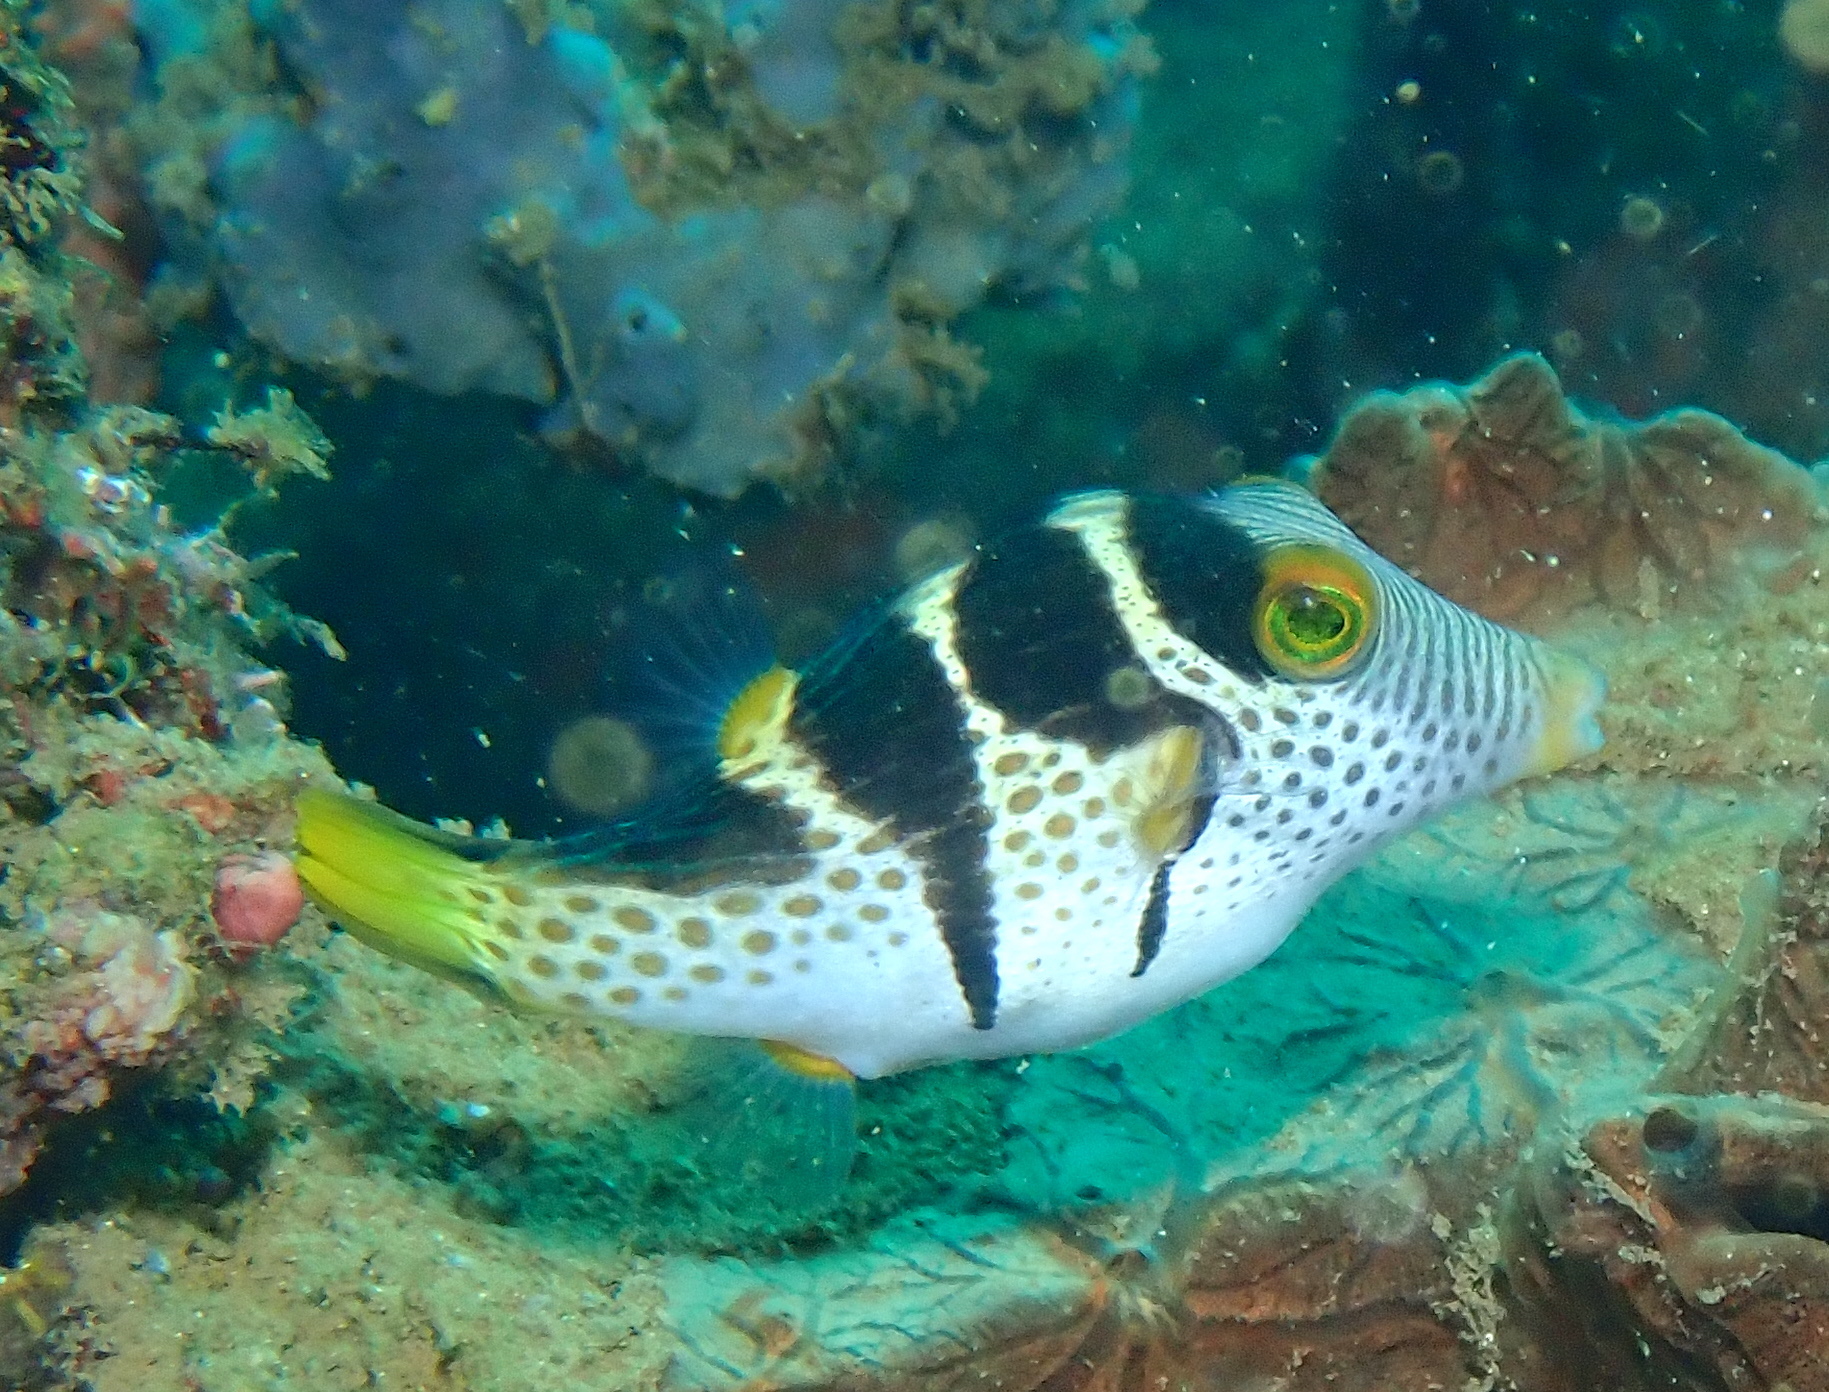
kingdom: Animalia
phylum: Chordata
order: Tetraodontiformes
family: Tetraodontidae
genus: Canthigaster
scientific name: Canthigaster valentini
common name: Banded toby
